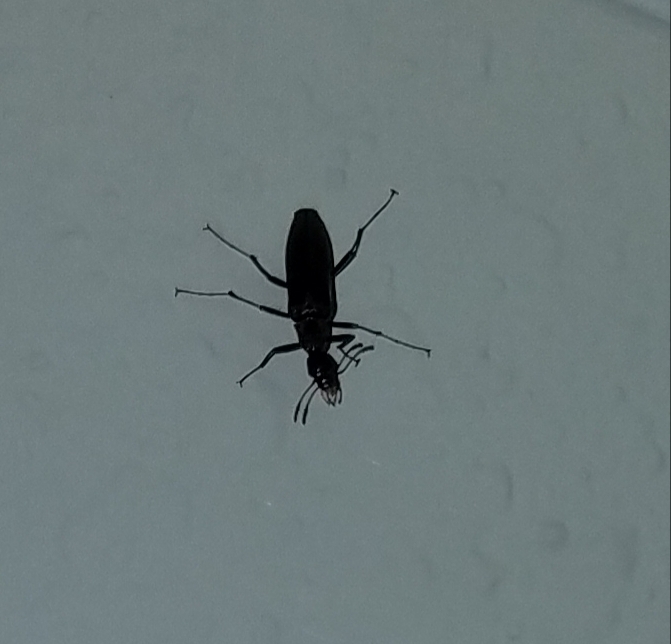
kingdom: Animalia
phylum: Arthropoda
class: Insecta
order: Coleoptera
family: Stenotrachelidae
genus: Cephaloon
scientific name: Cephaloon lepturides
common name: False leptura beetle
